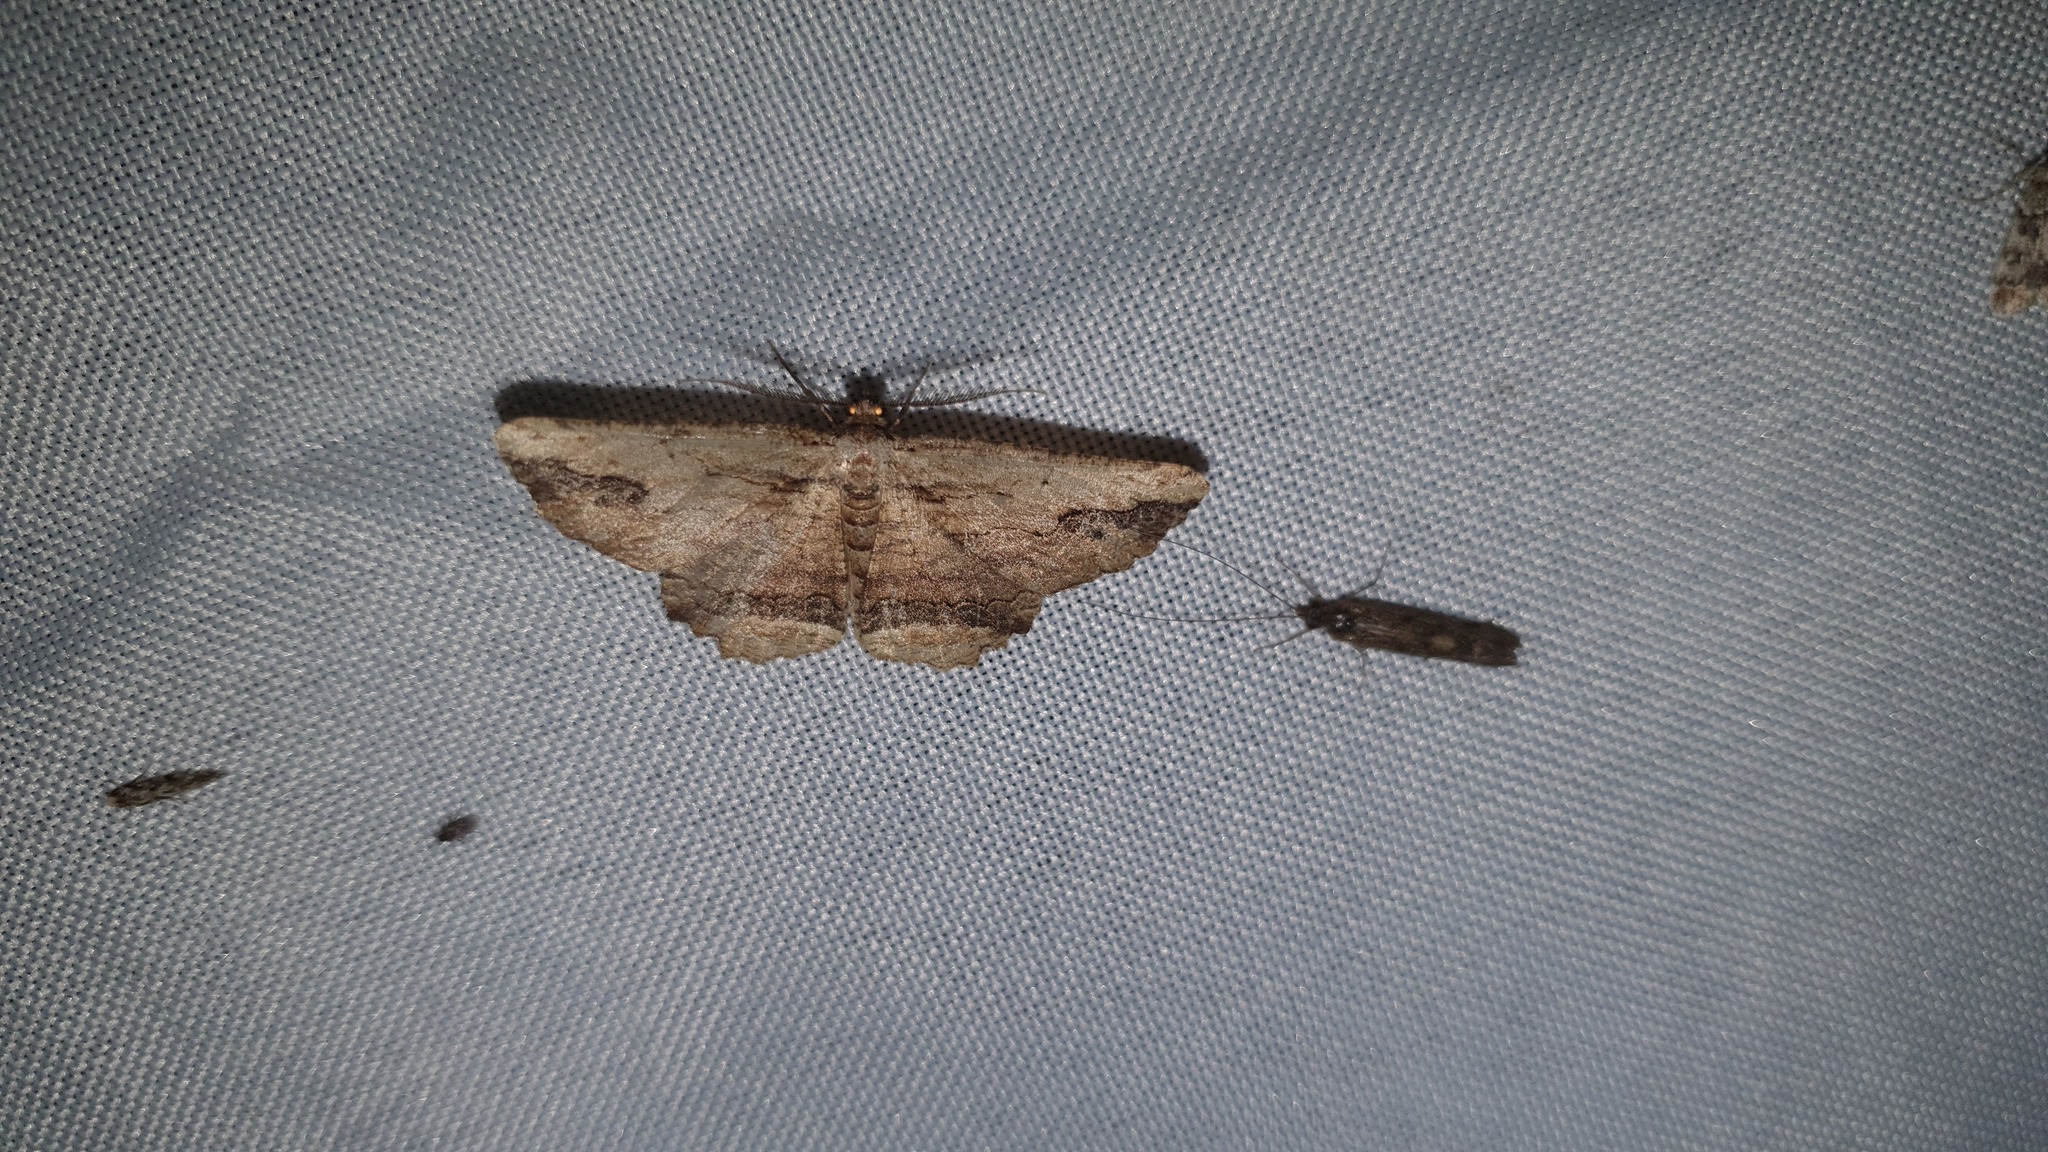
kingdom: Animalia
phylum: Arthropoda
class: Insecta
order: Lepidoptera
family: Geometridae
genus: Menophra
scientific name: Menophra abruptaria
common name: Waved umber
